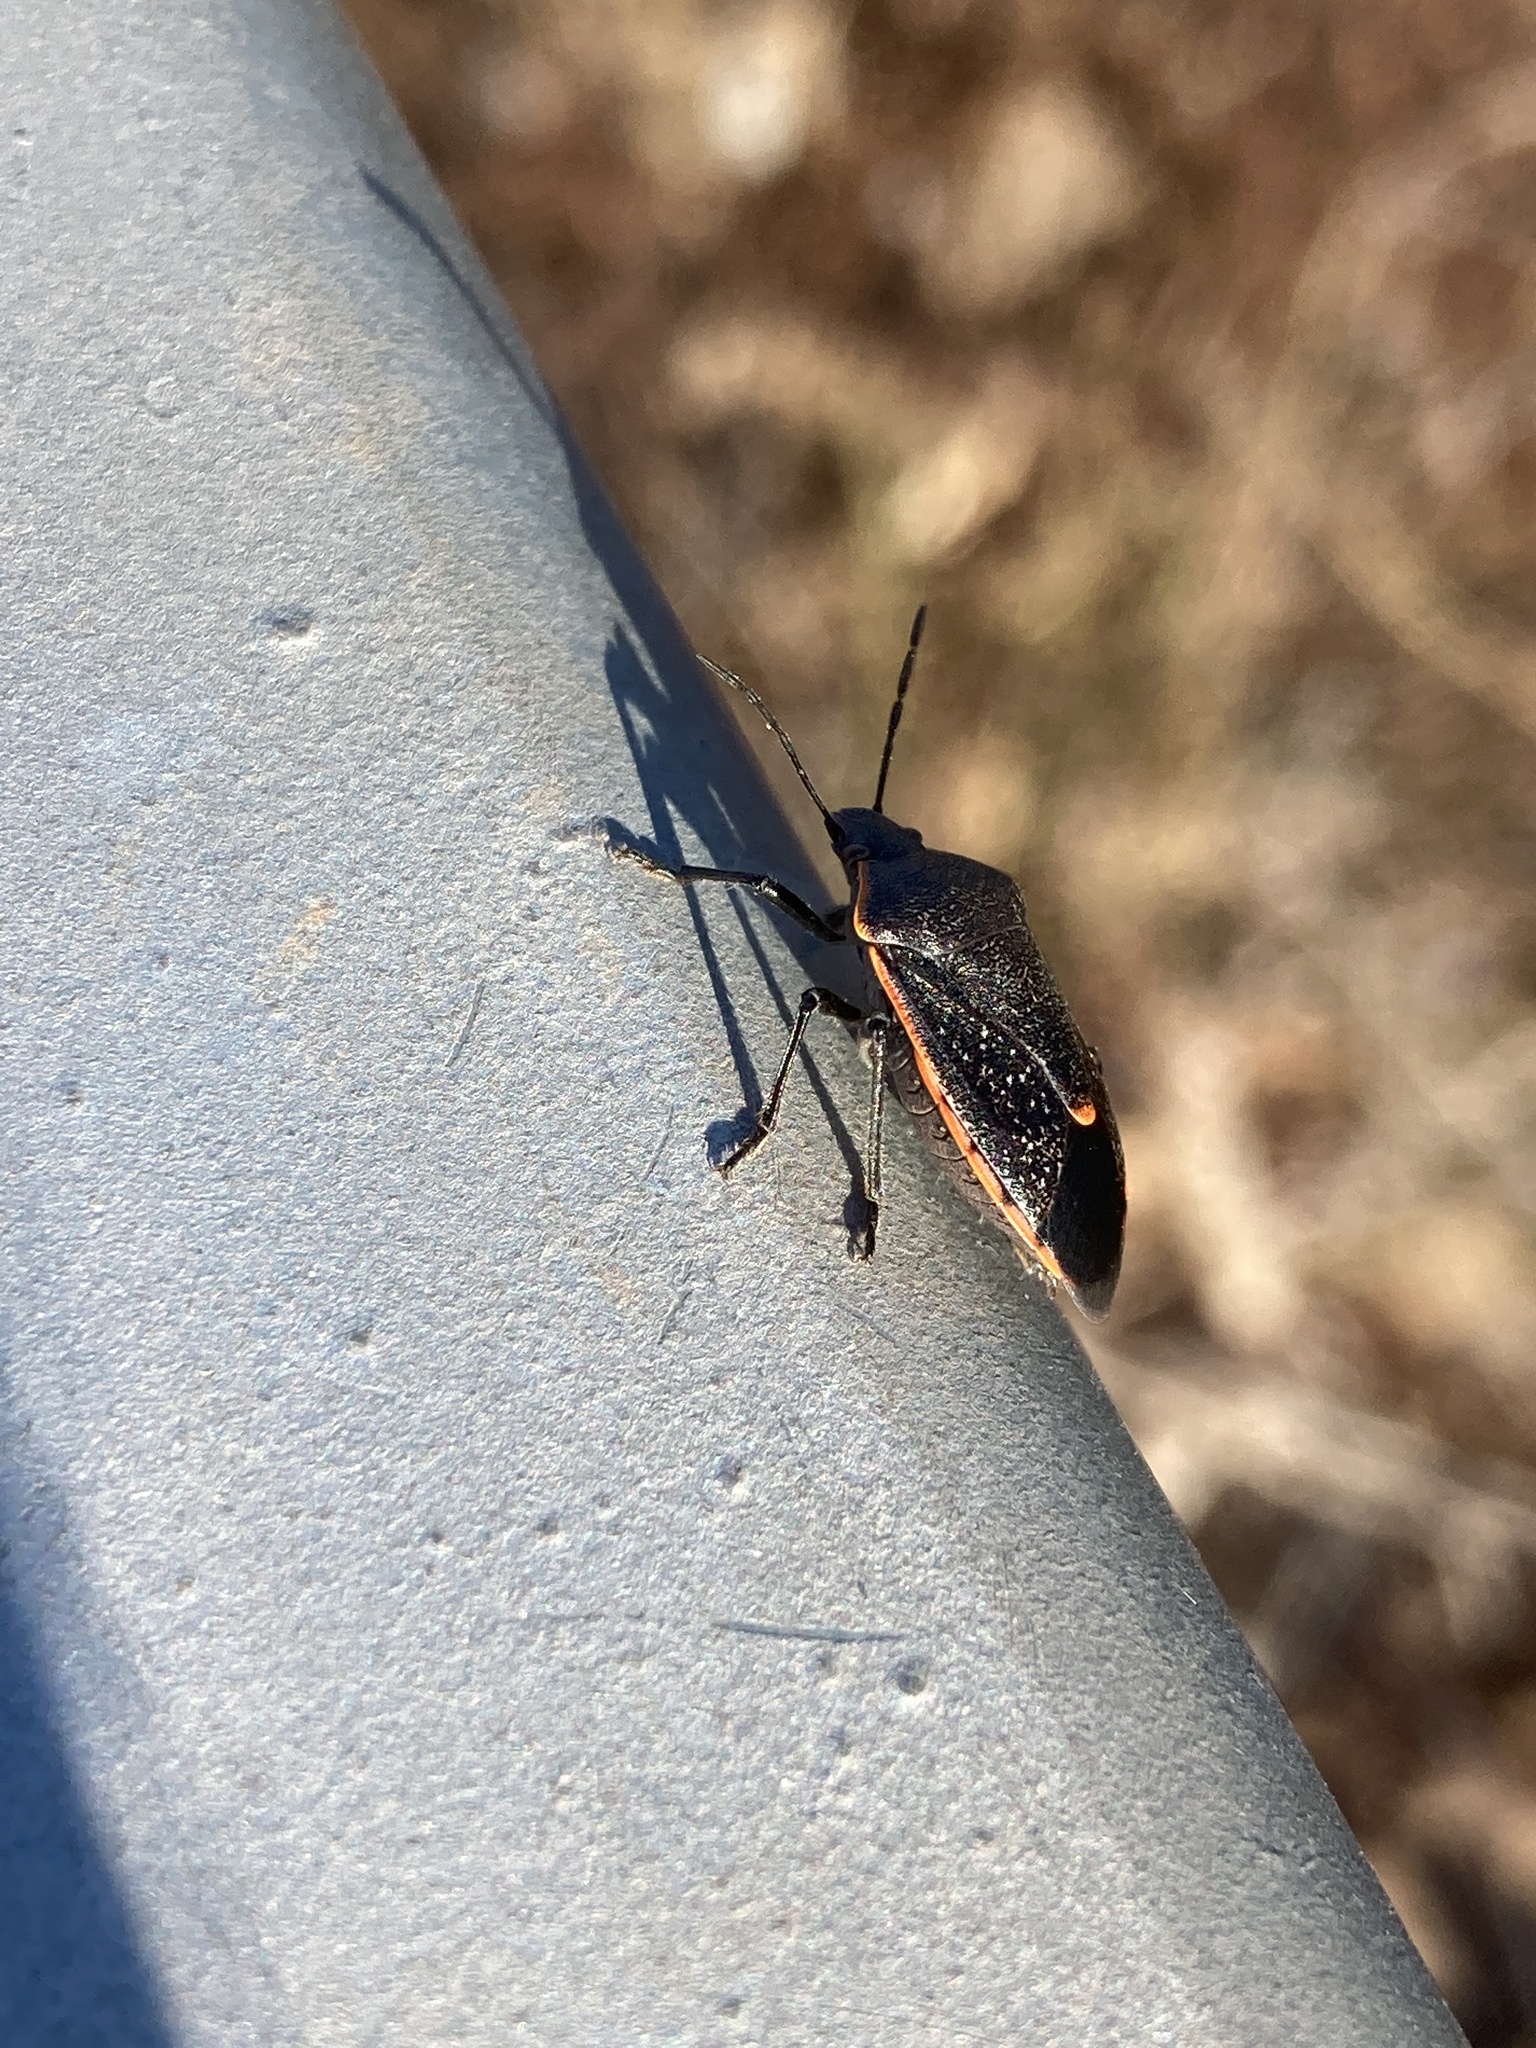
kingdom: Animalia
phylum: Arthropoda
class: Insecta
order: Hemiptera
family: Pentatomidae
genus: Chlorochroa
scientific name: Chlorochroa ligata
